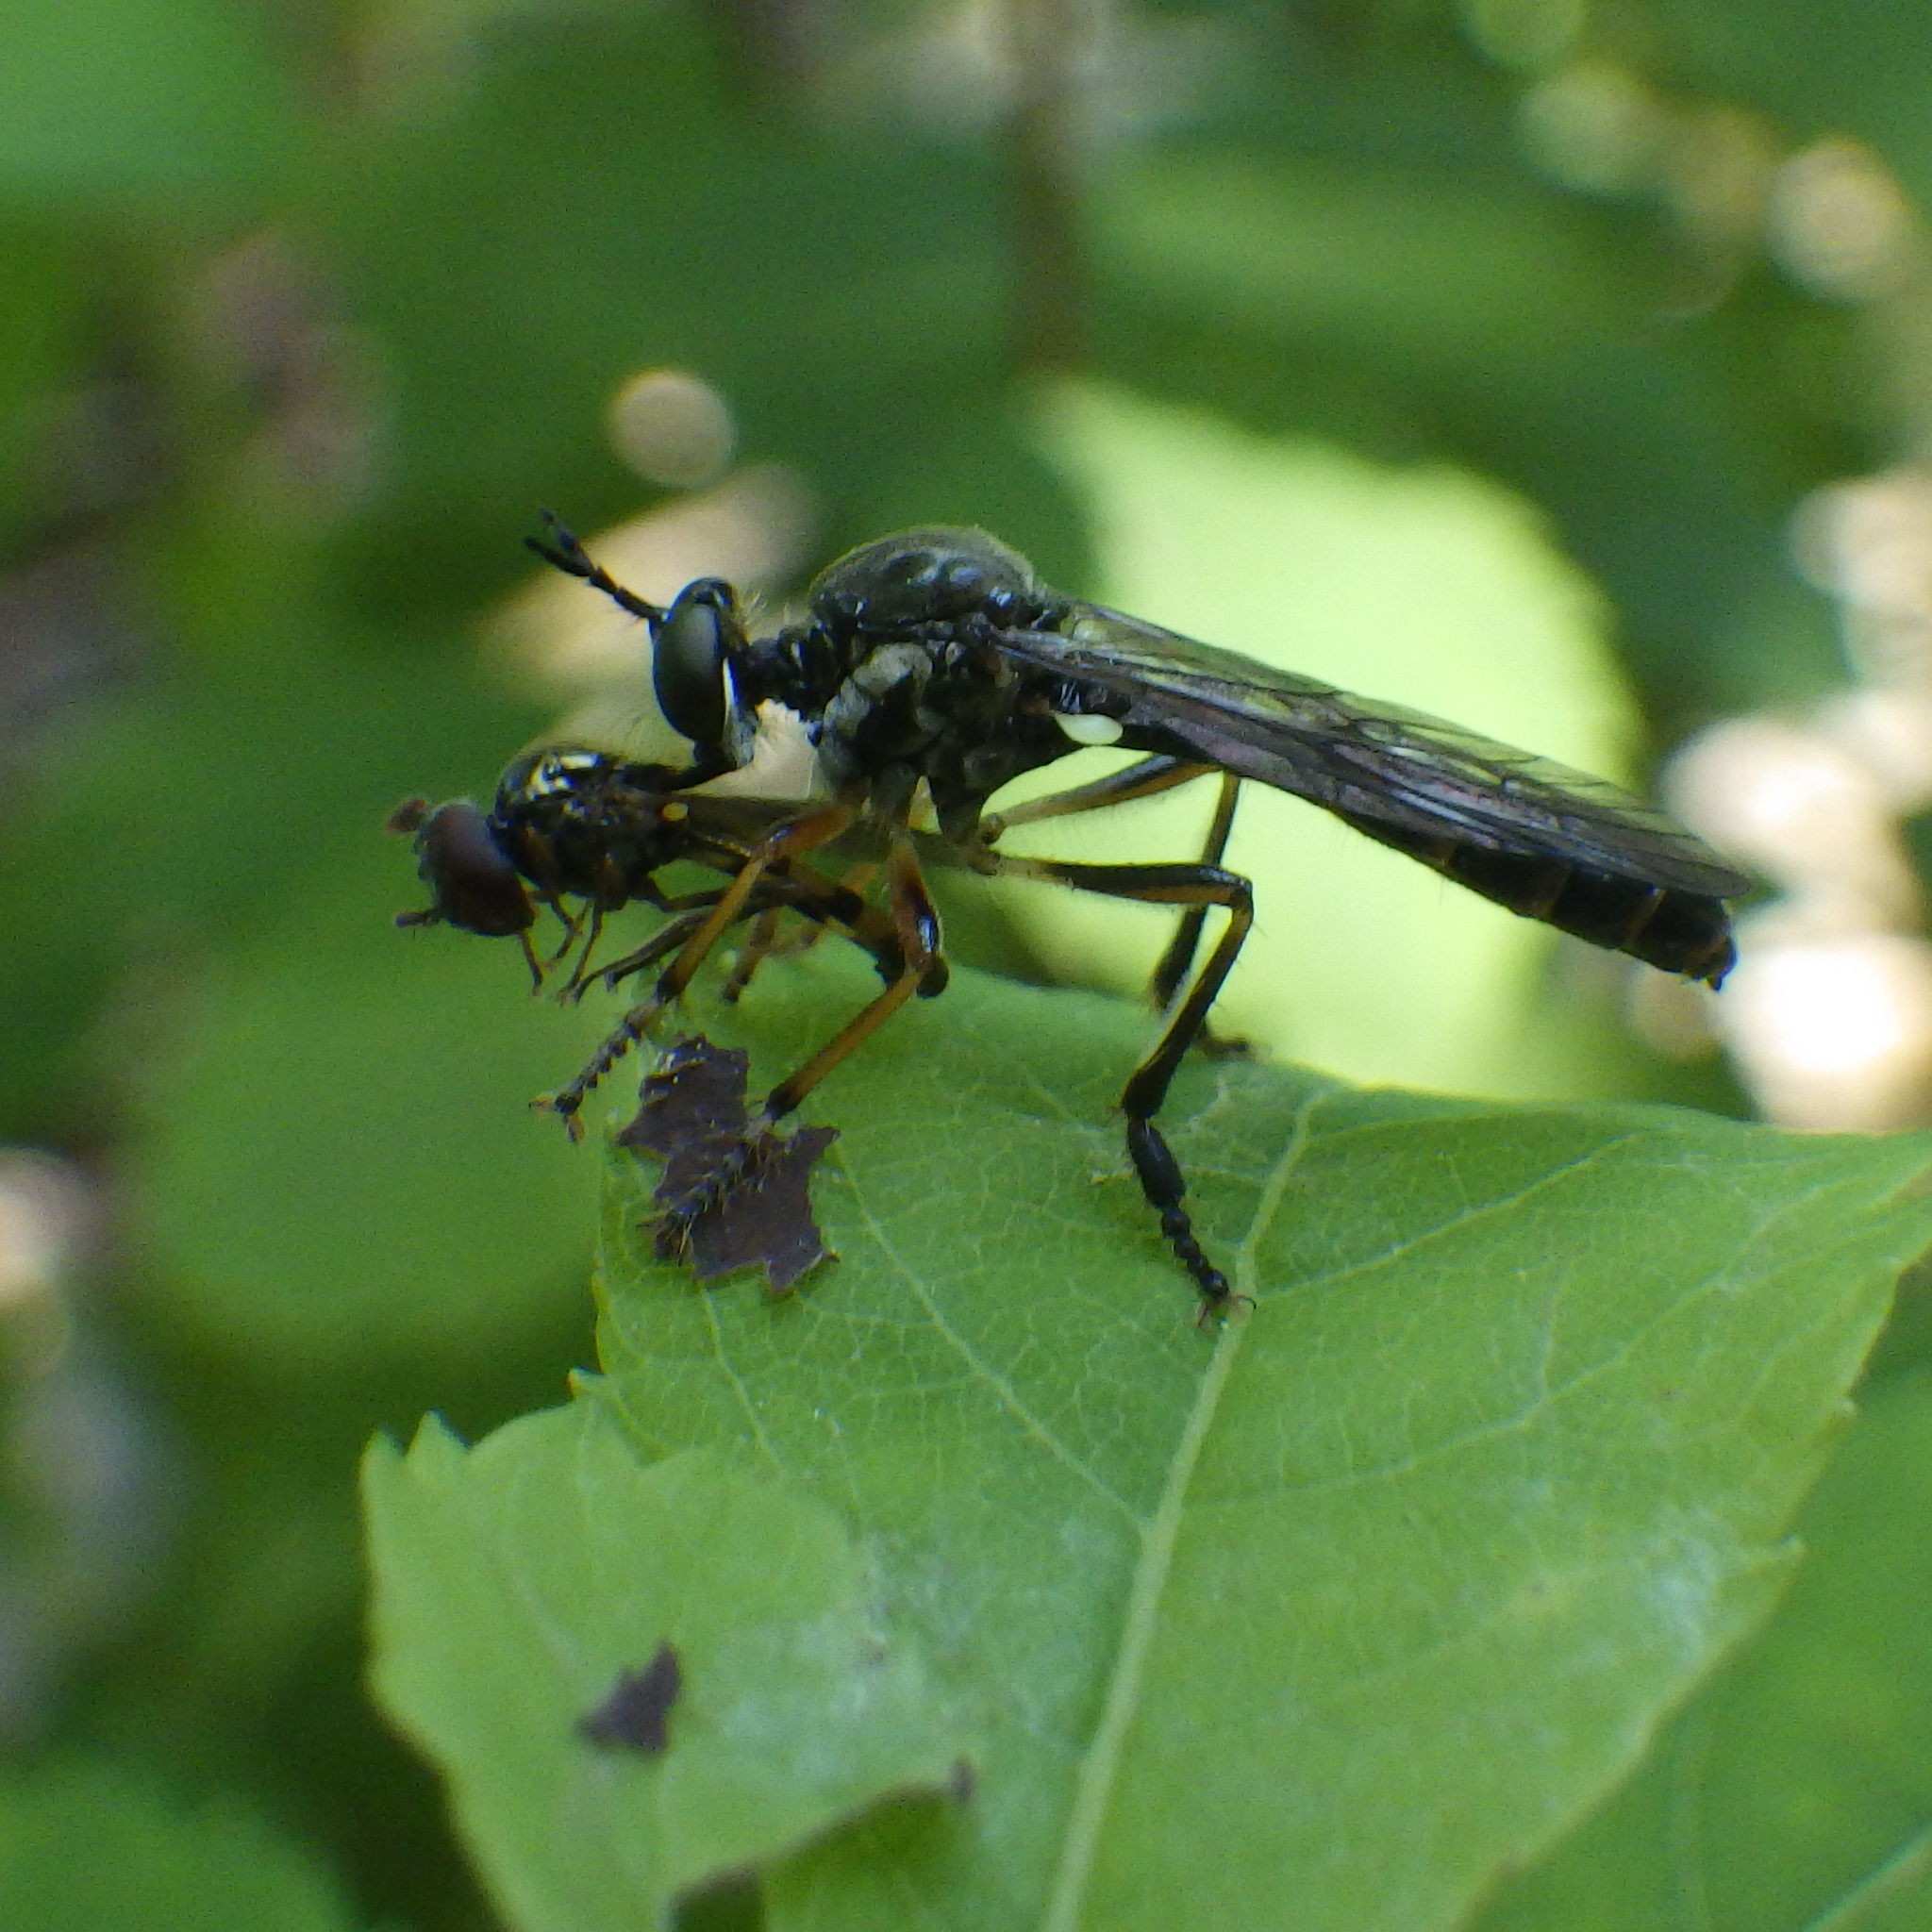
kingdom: Animalia
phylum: Arthropoda
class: Insecta
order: Diptera
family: Asilidae
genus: Dioctria
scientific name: Dioctria hyalipennis
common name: Stripe-legged robberfly
